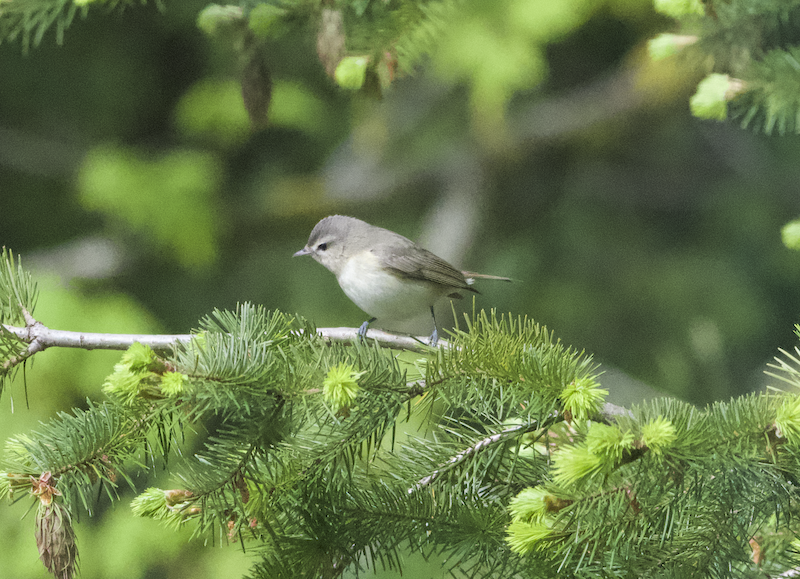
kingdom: Animalia
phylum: Chordata
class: Aves
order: Passeriformes
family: Vireonidae
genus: Vireo
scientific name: Vireo gilvus
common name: Warbling vireo
